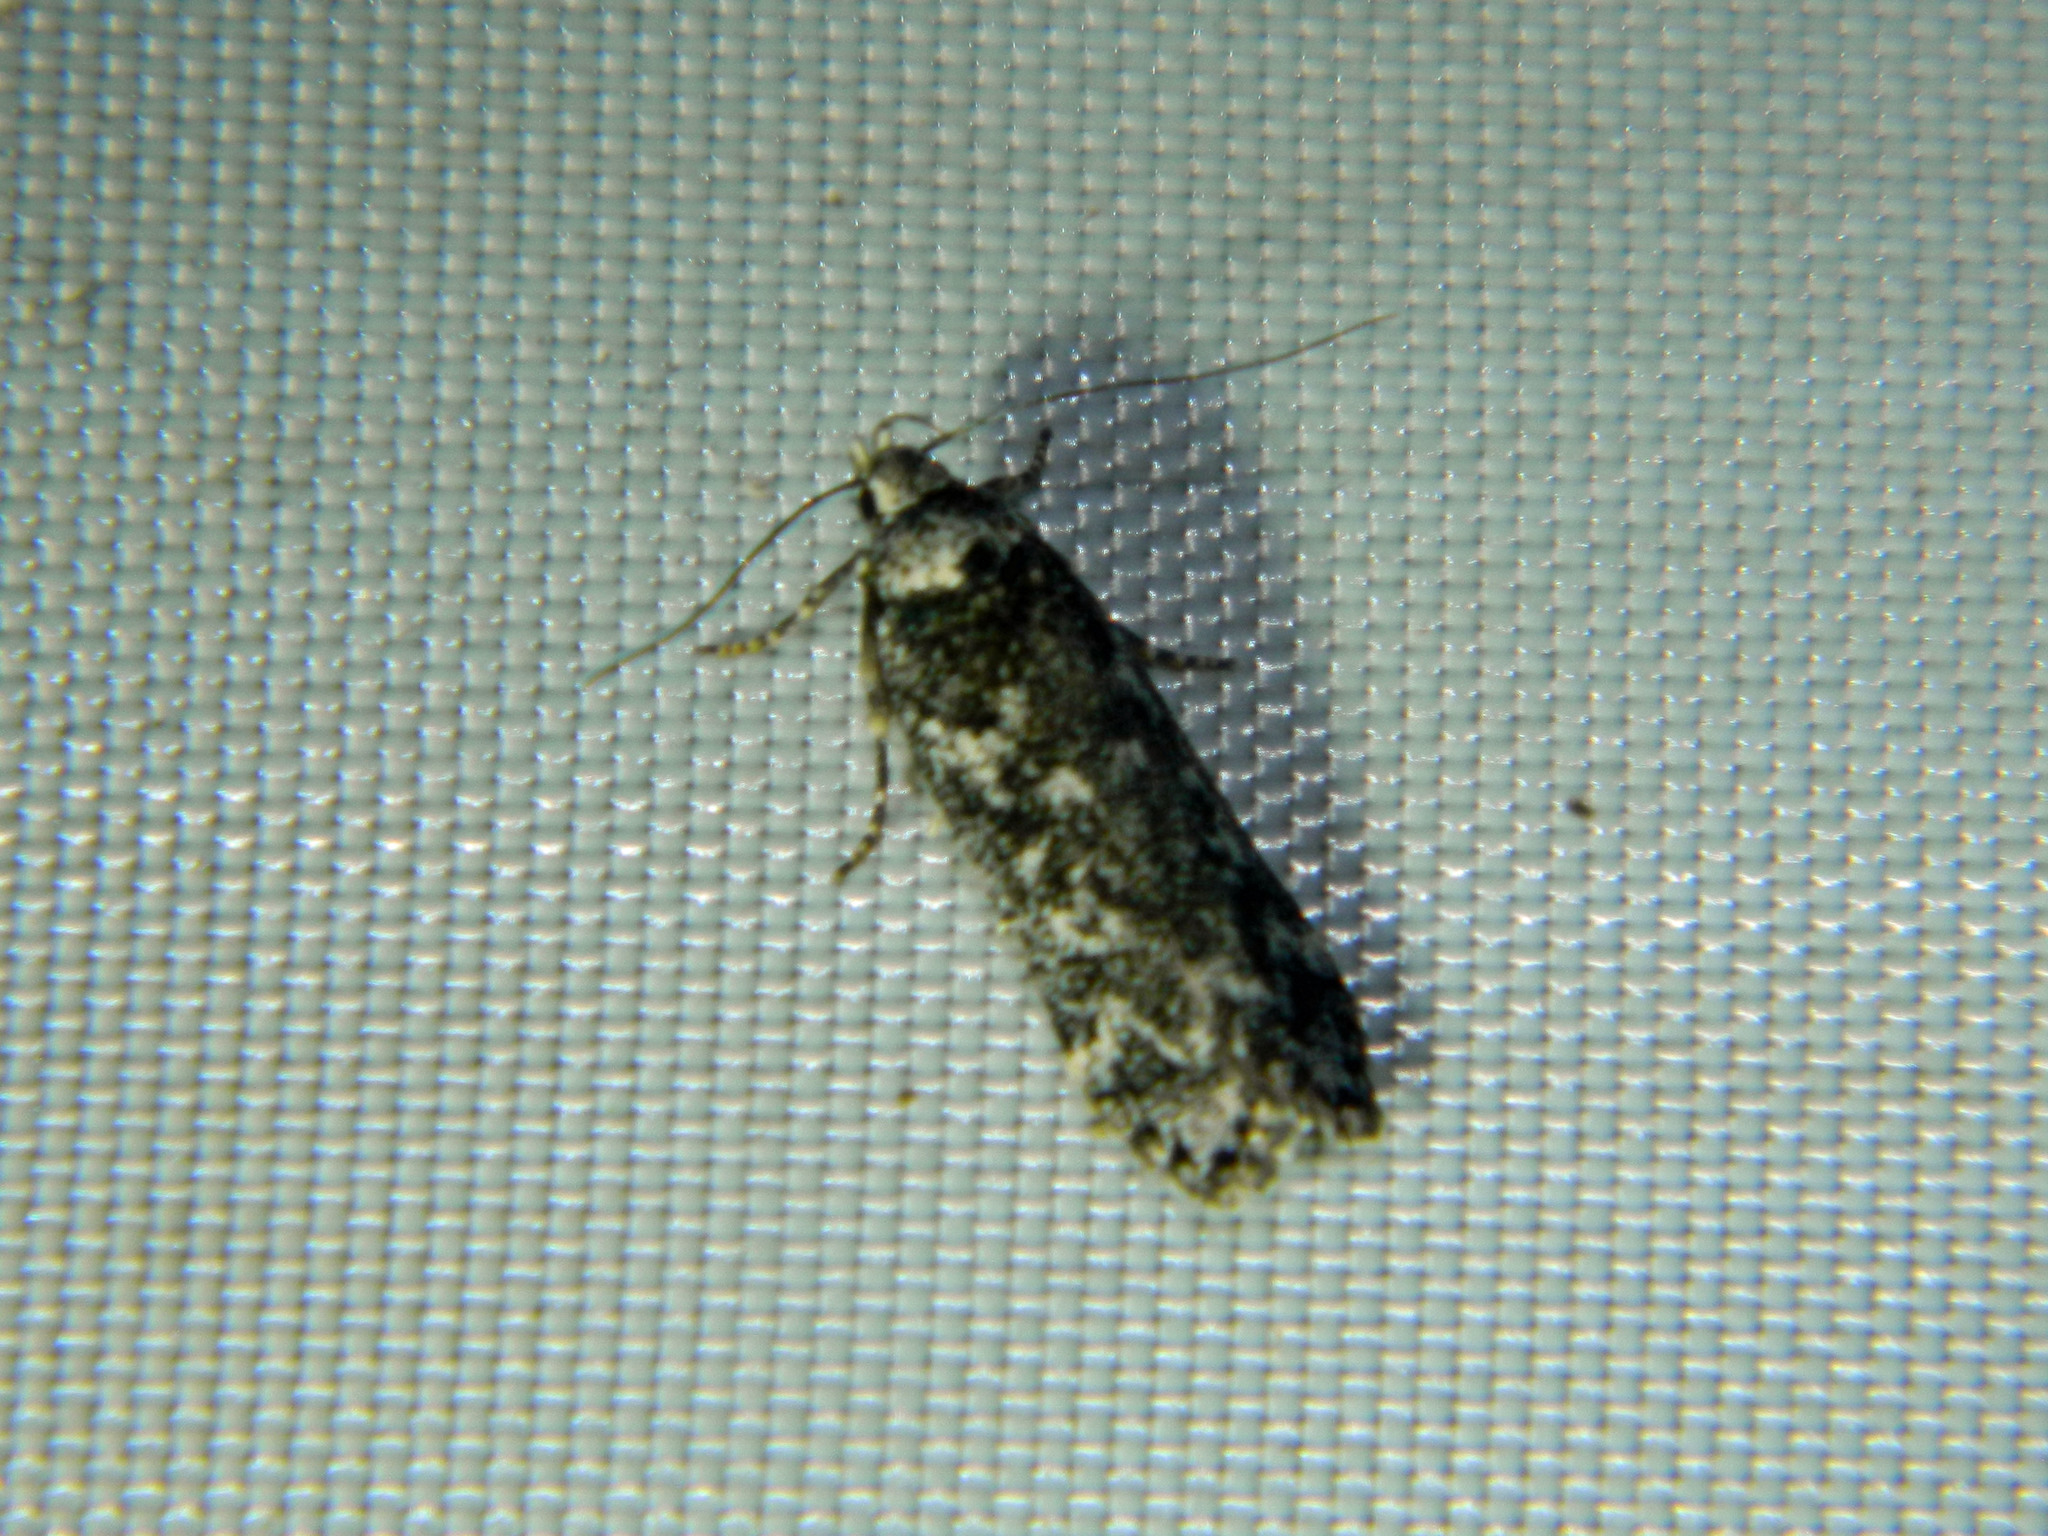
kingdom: Animalia
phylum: Arthropoda
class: Insecta
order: Lepidoptera
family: Gelechiidae
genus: Anacampsis
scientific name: Anacampsis niveopulvella
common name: Pale-headed aspen leafroller moth
